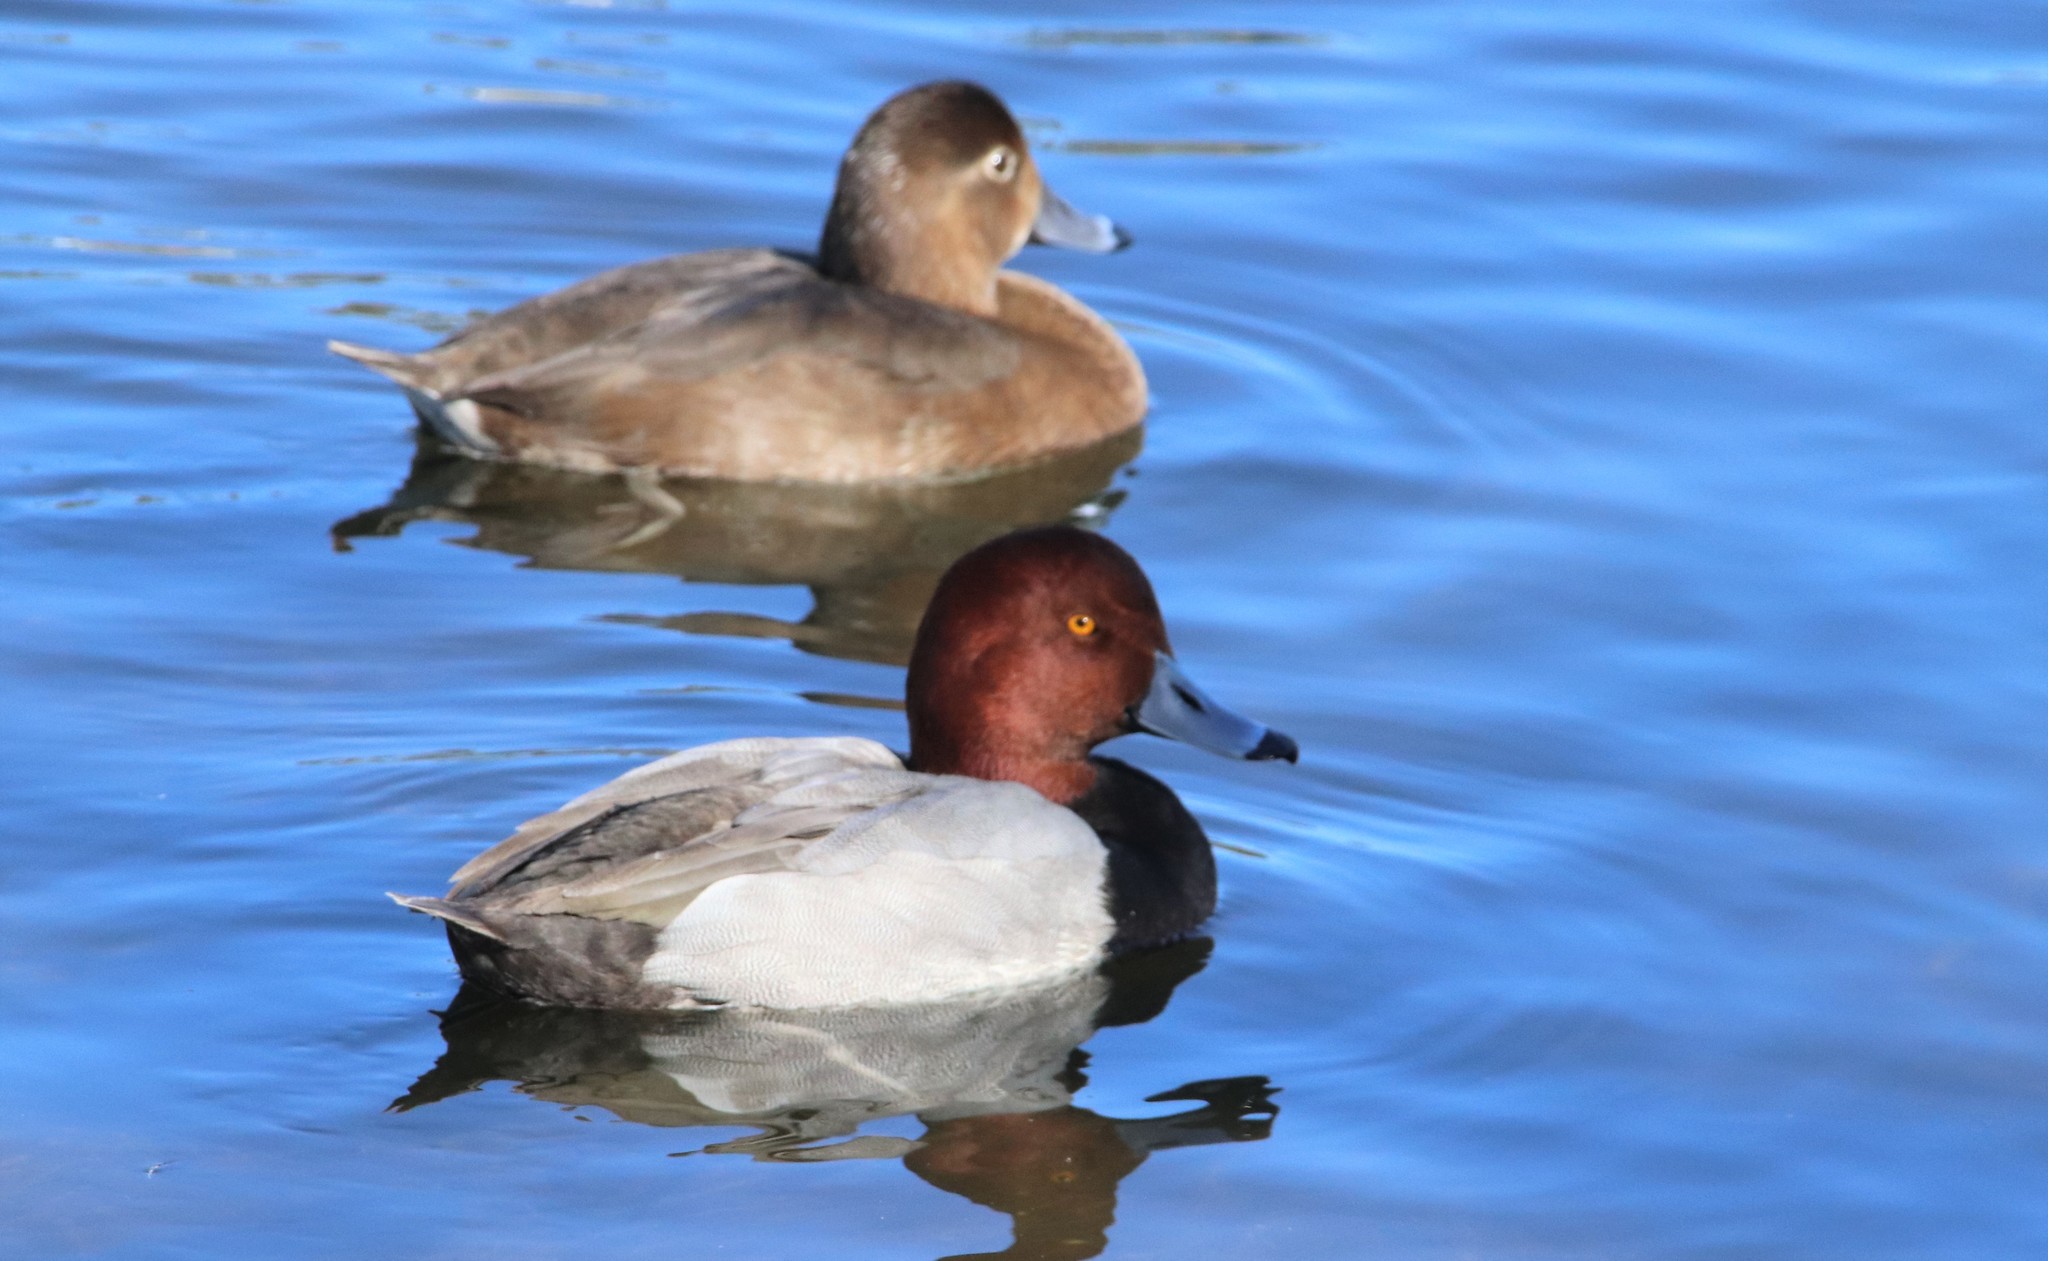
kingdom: Animalia
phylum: Chordata
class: Aves
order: Anseriformes
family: Anatidae
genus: Aythya
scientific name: Aythya americana
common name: Redhead
